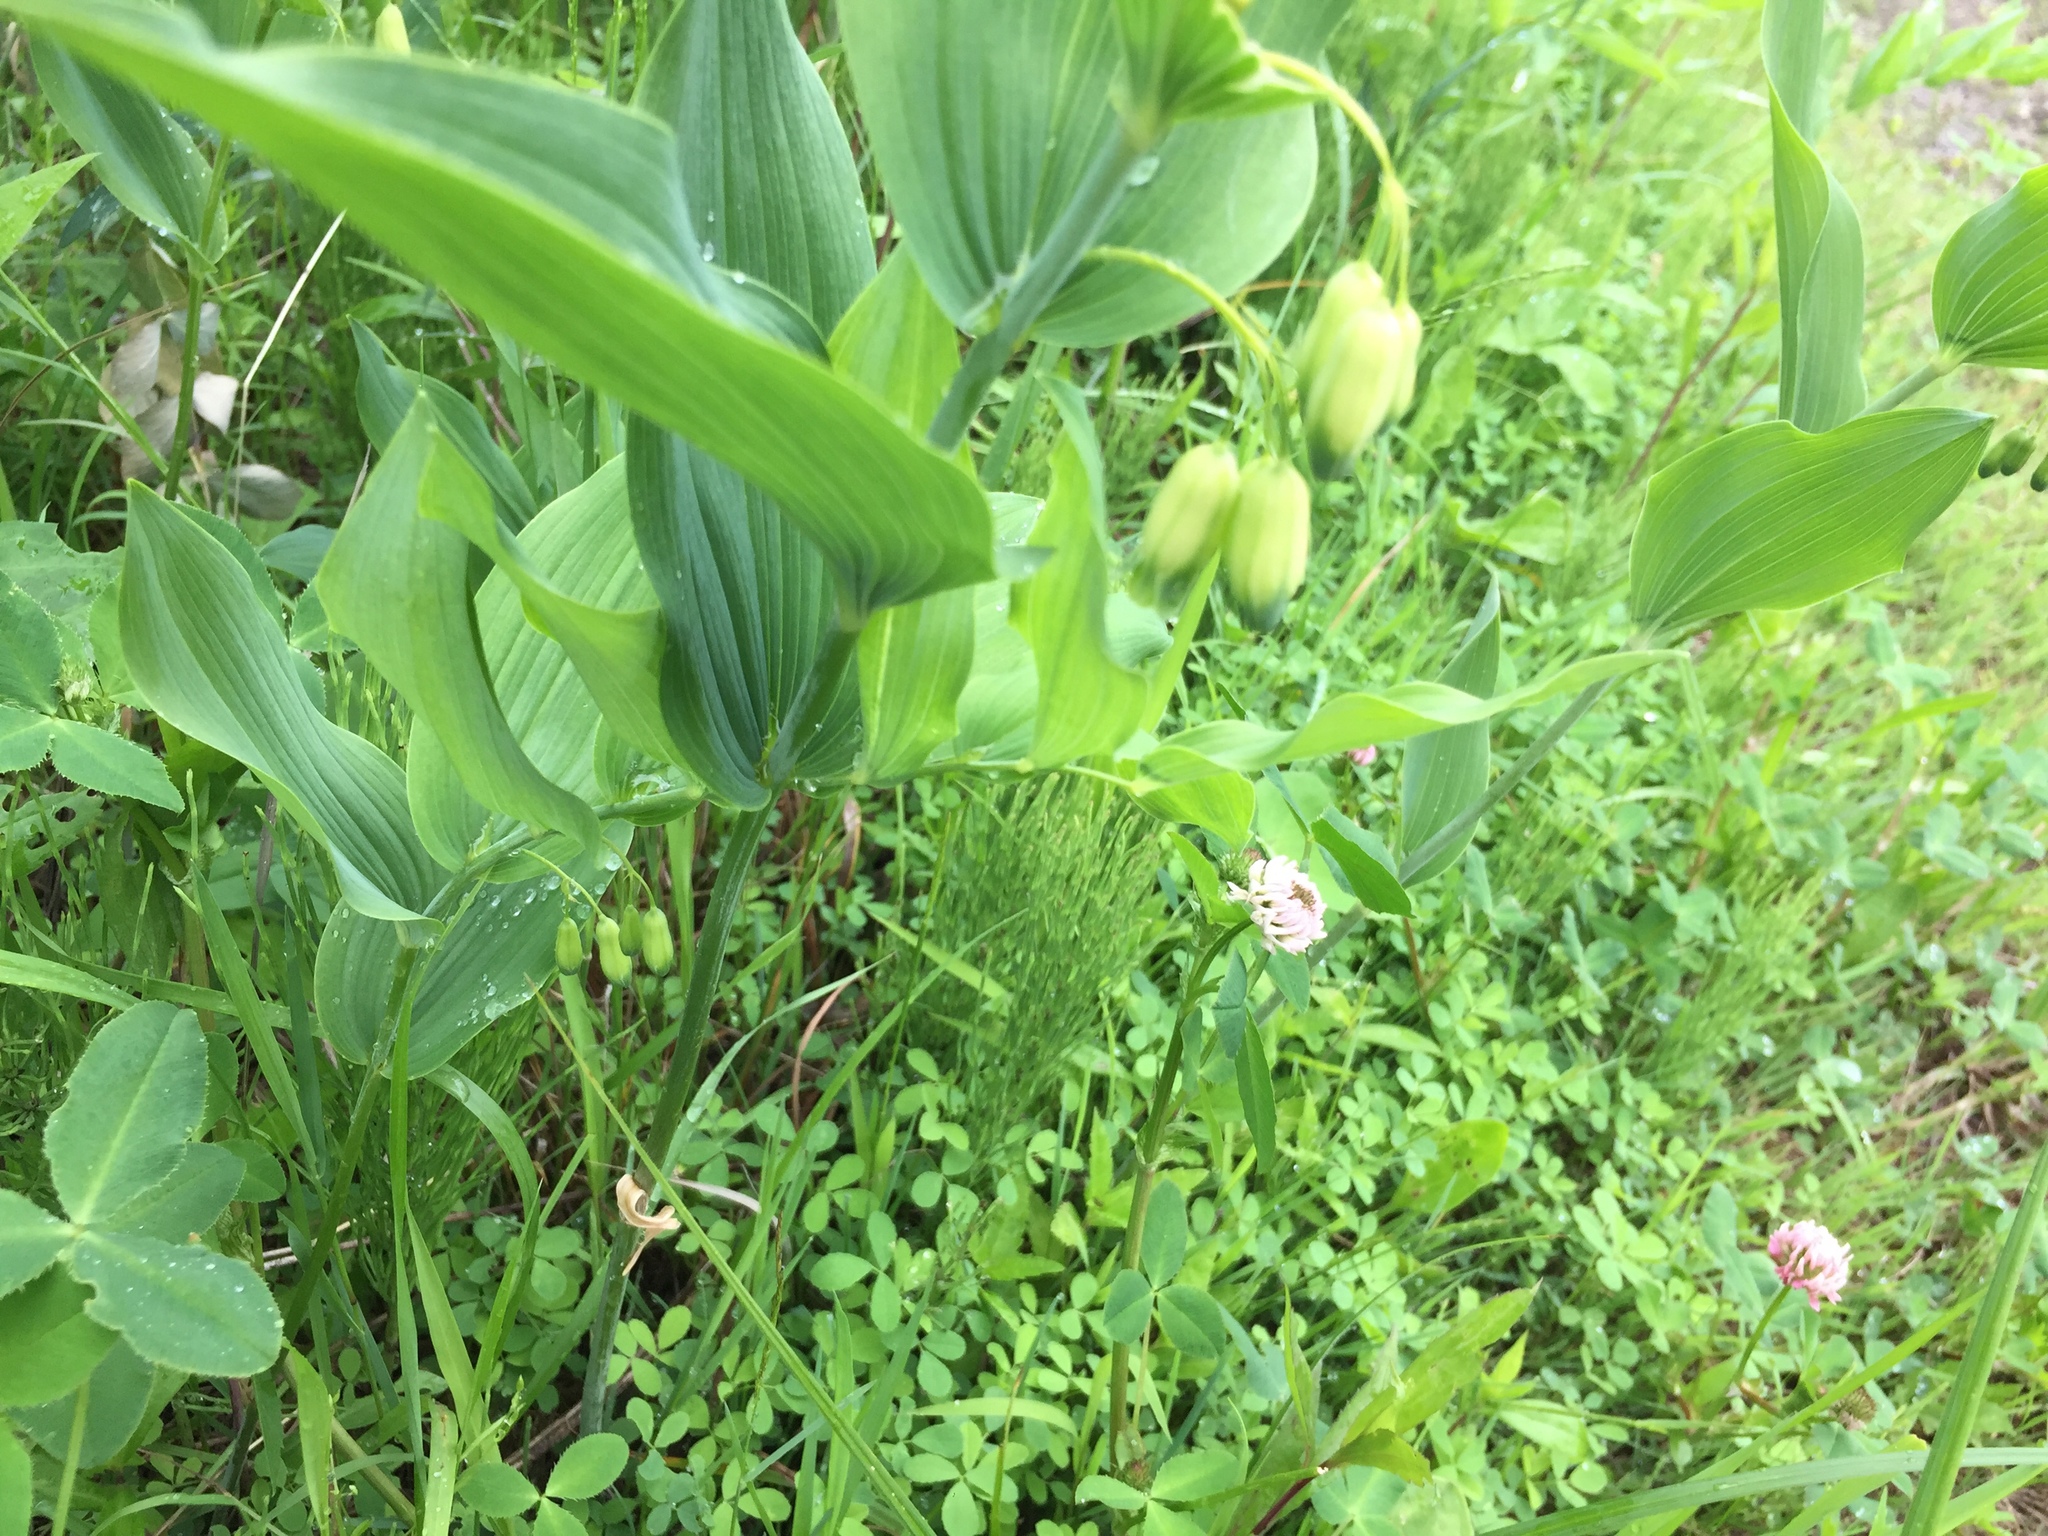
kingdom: Plantae
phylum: Tracheophyta
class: Liliopsida
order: Asparagales
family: Asparagaceae
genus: Polygonatum
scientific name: Polygonatum biflorum
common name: American solomon's-seal
